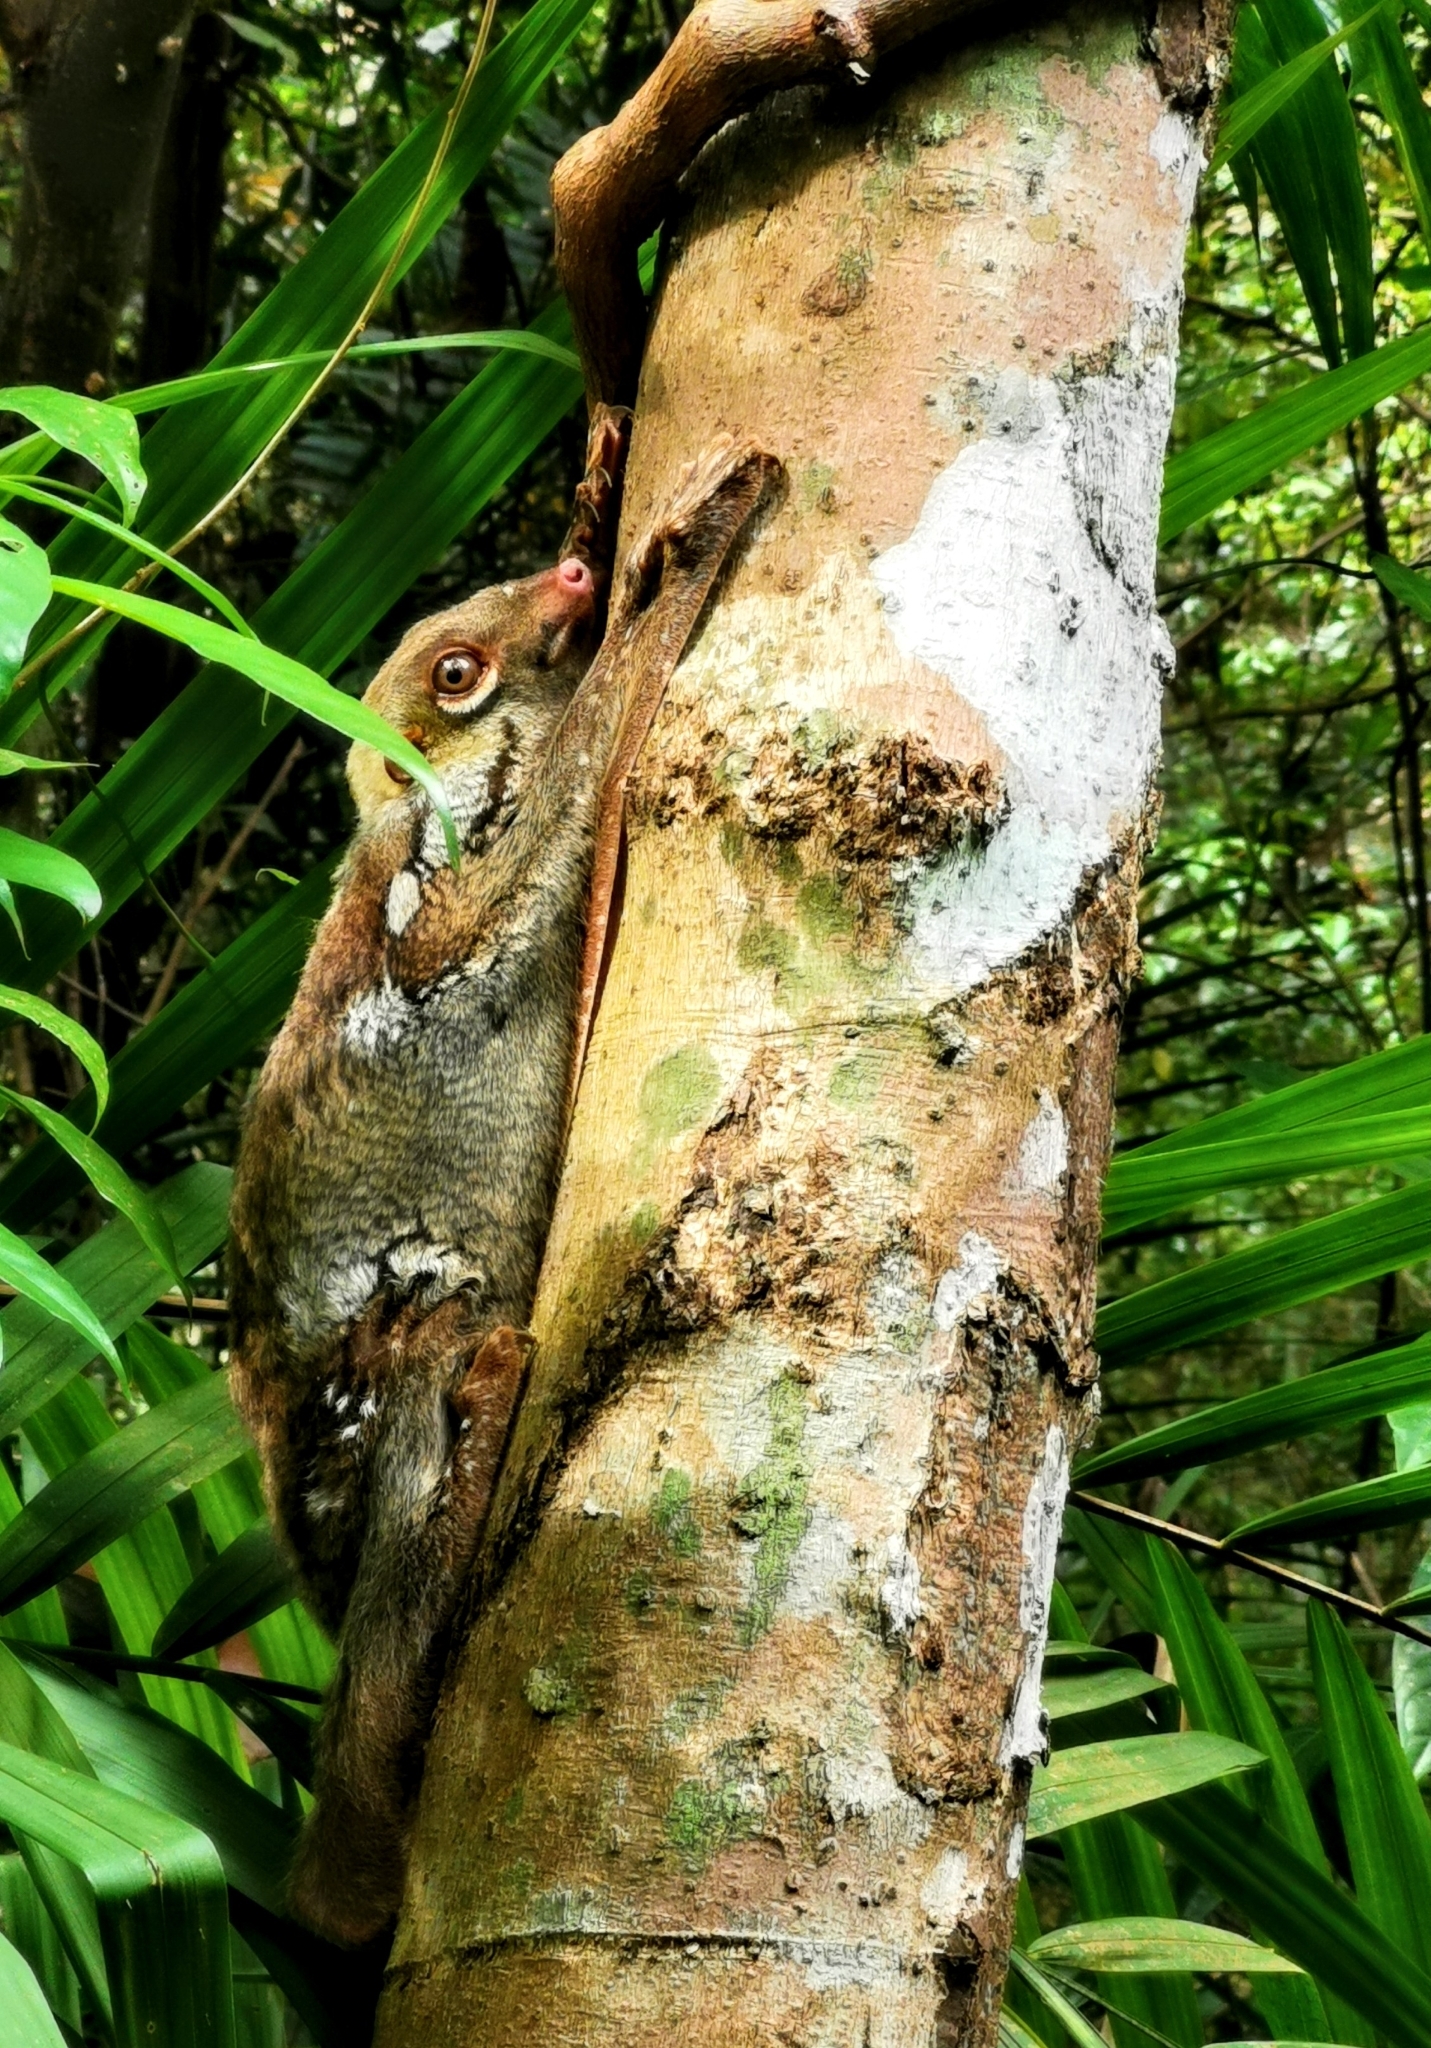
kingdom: Animalia
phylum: Chordata
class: Mammalia
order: Dermoptera
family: Cynocephalidae
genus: Galeopterus
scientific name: Galeopterus variegatus
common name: Sunda flying lemur
